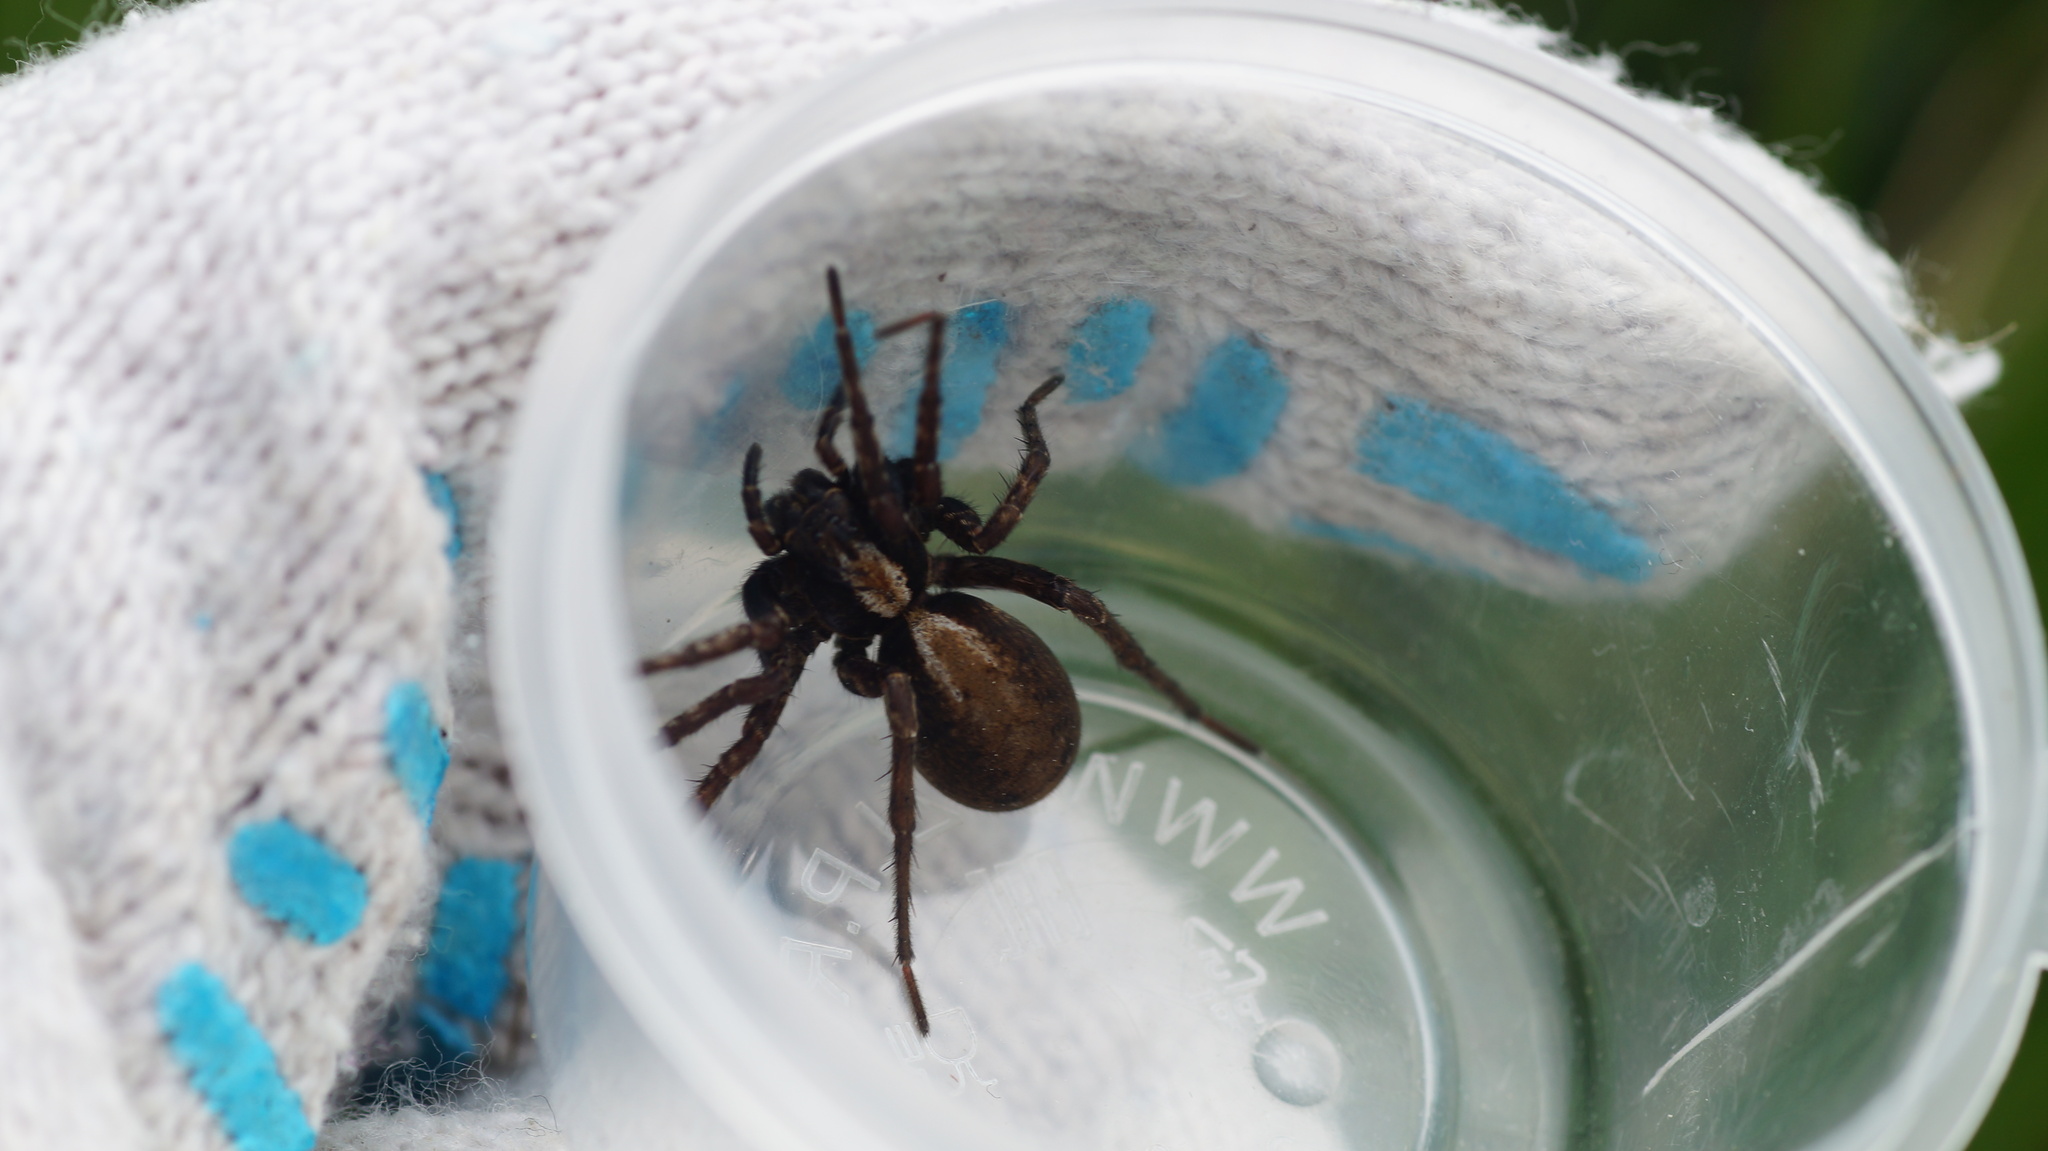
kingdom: Animalia
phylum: Arthropoda
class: Arachnida
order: Araneae
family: Lycosidae
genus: Alopecosa
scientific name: Alopecosa pinetorum
